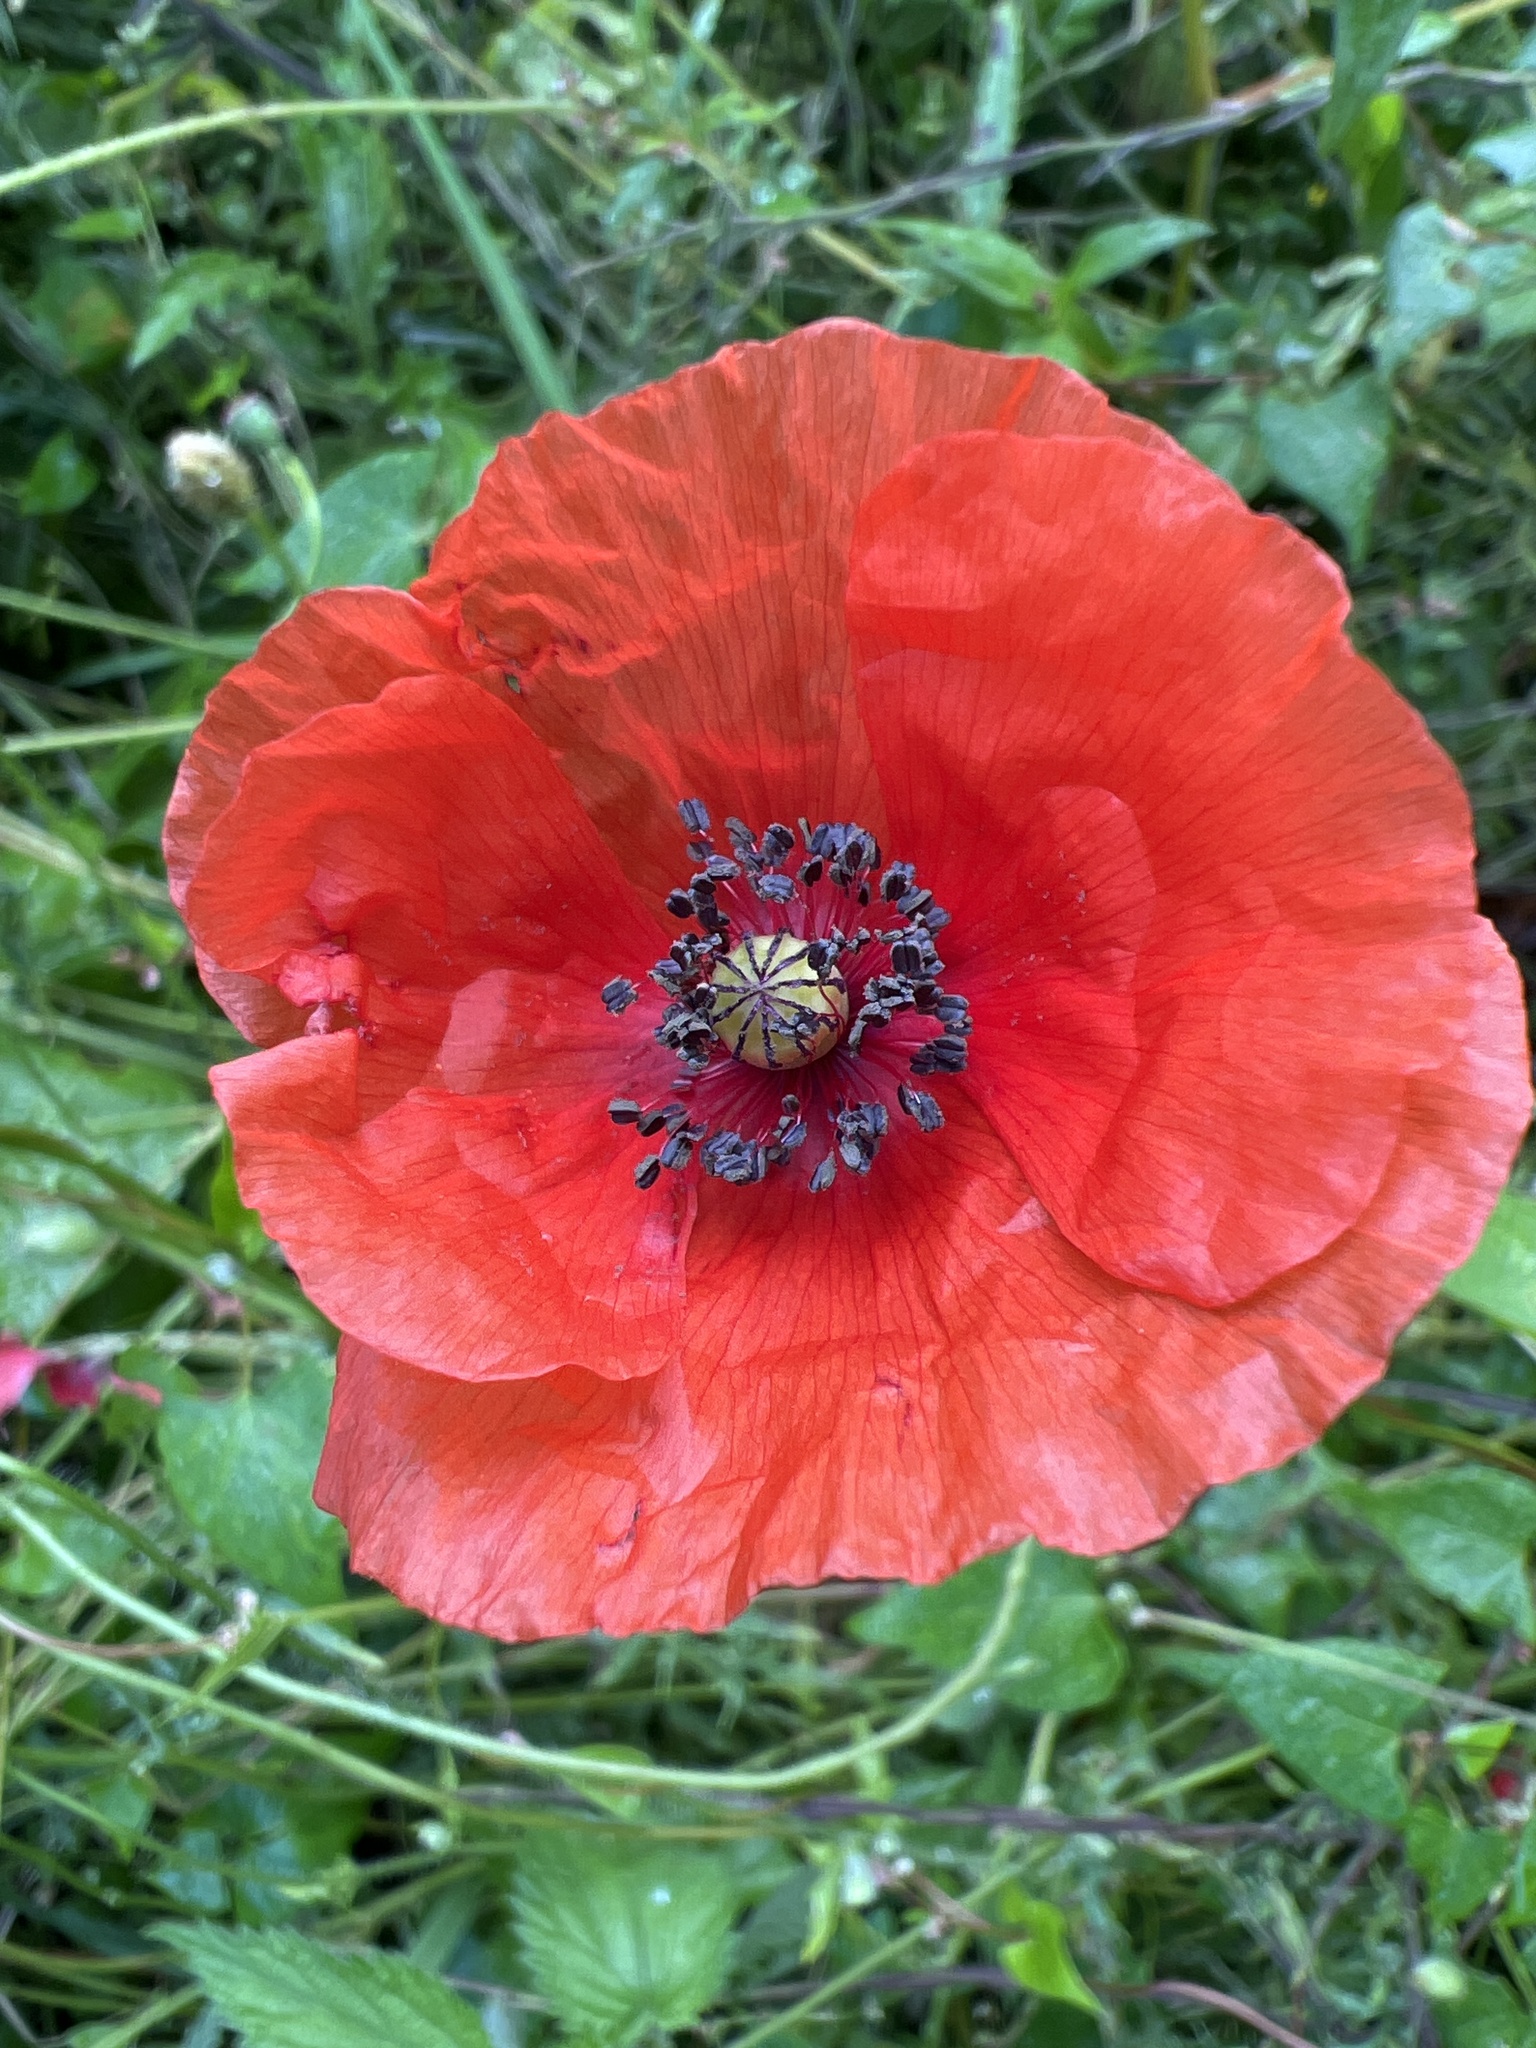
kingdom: Plantae
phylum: Tracheophyta
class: Magnoliopsida
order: Ranunculales
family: Papaveraceae
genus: Papaver
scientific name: Papaver rhoeas
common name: Corn poppy
